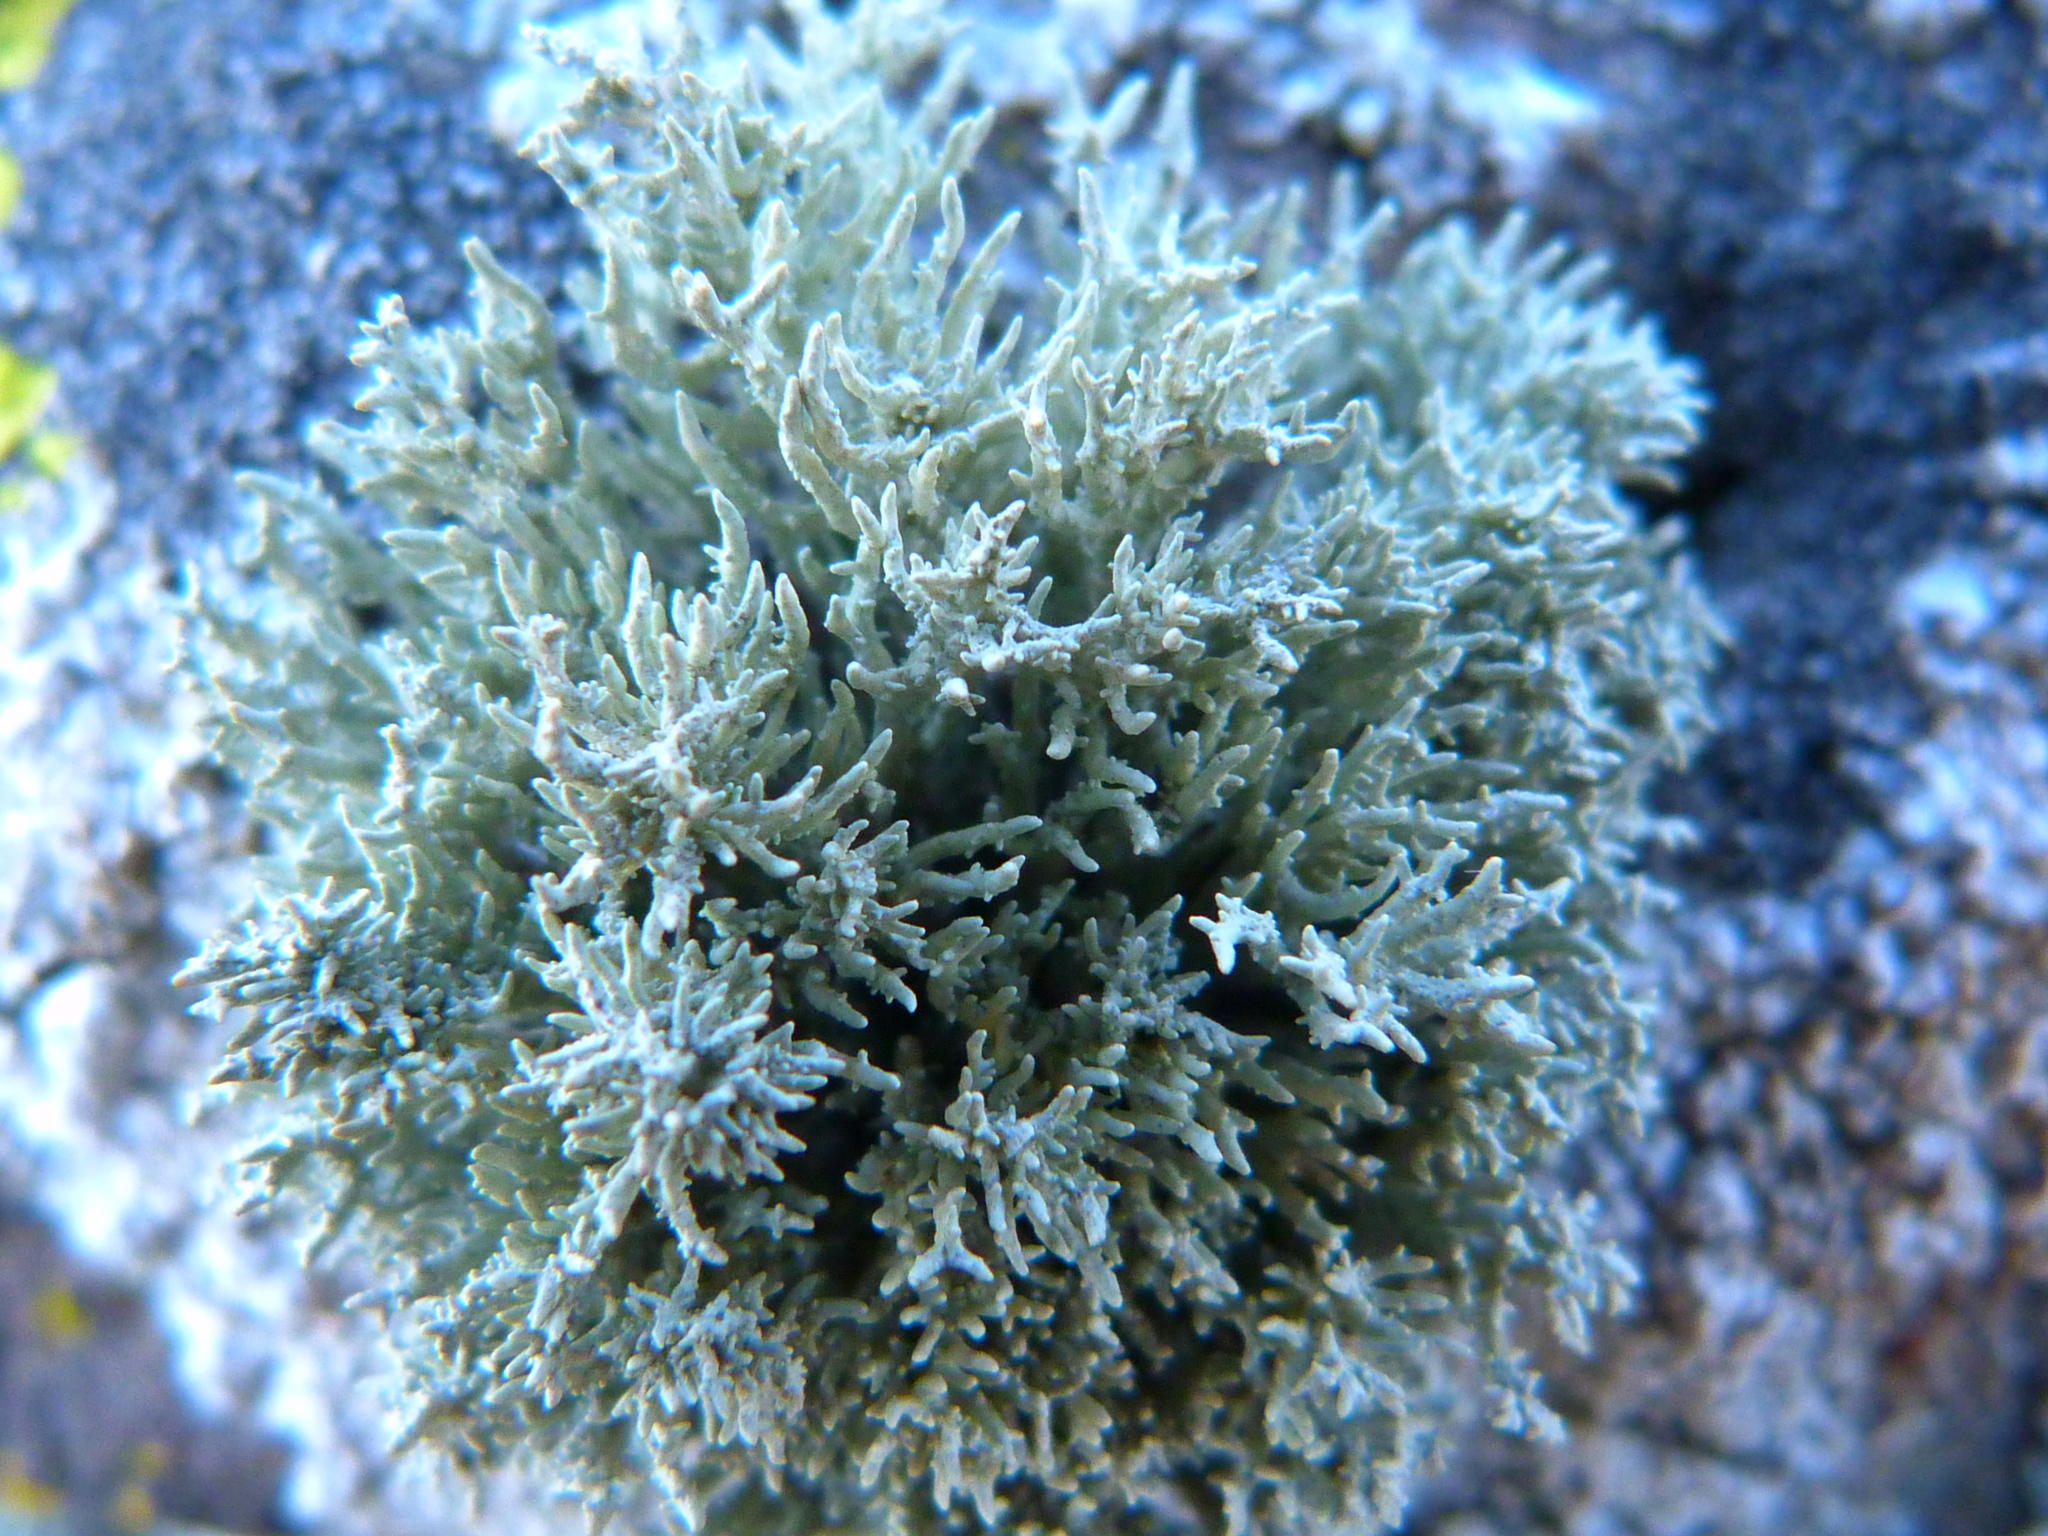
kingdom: Fungi
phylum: Ascomycota
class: Lecanoromycetes
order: Lecanorales
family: Ramalinaceae
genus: Niebla
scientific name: Niebla isidiaescens
